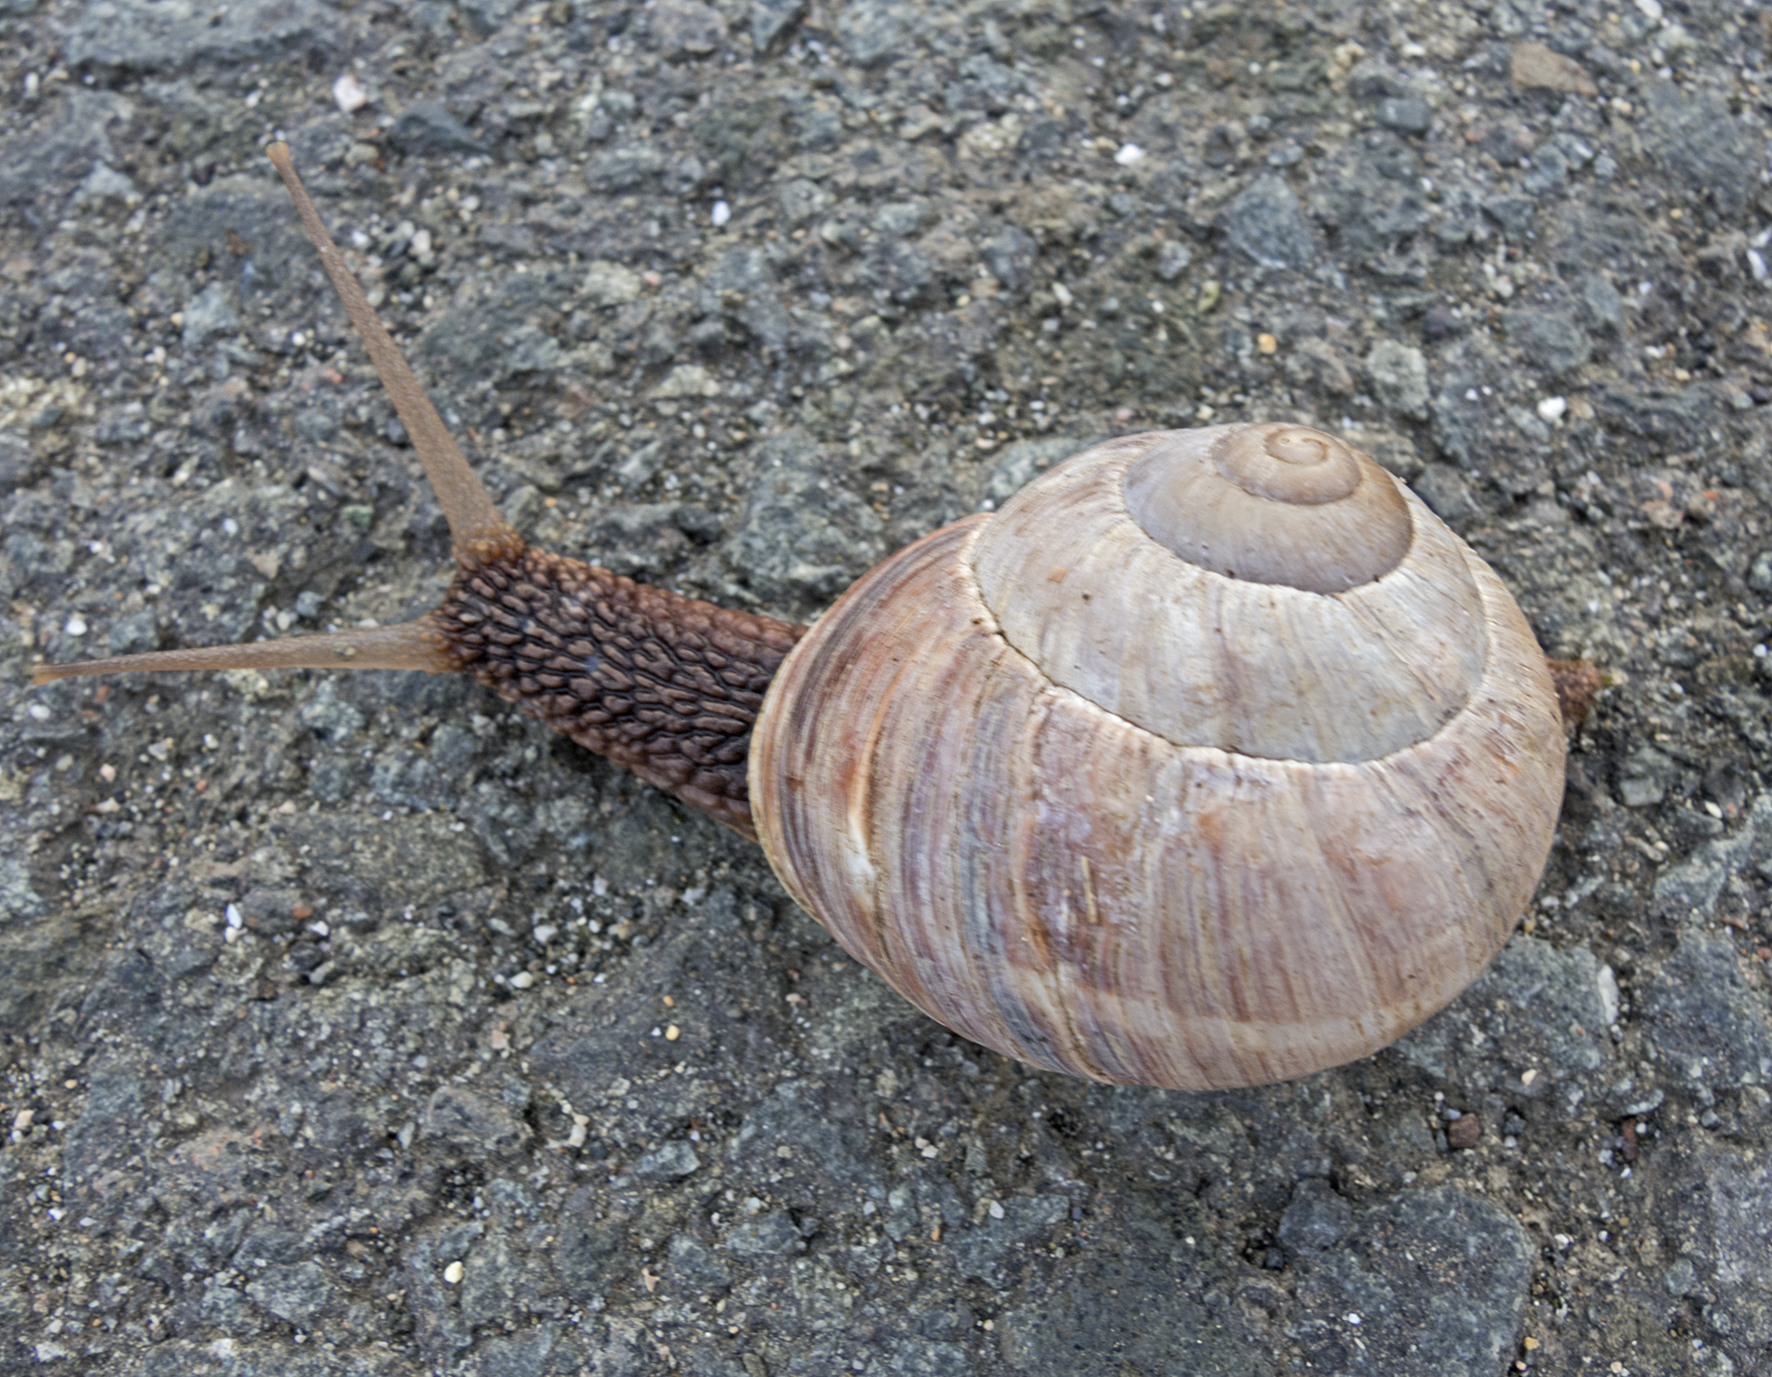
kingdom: Animalia
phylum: Mollusca
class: Gastropoda
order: Stylommatophora
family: Helicidae
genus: Helix
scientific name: Helix lucorum
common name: Turkish snail
